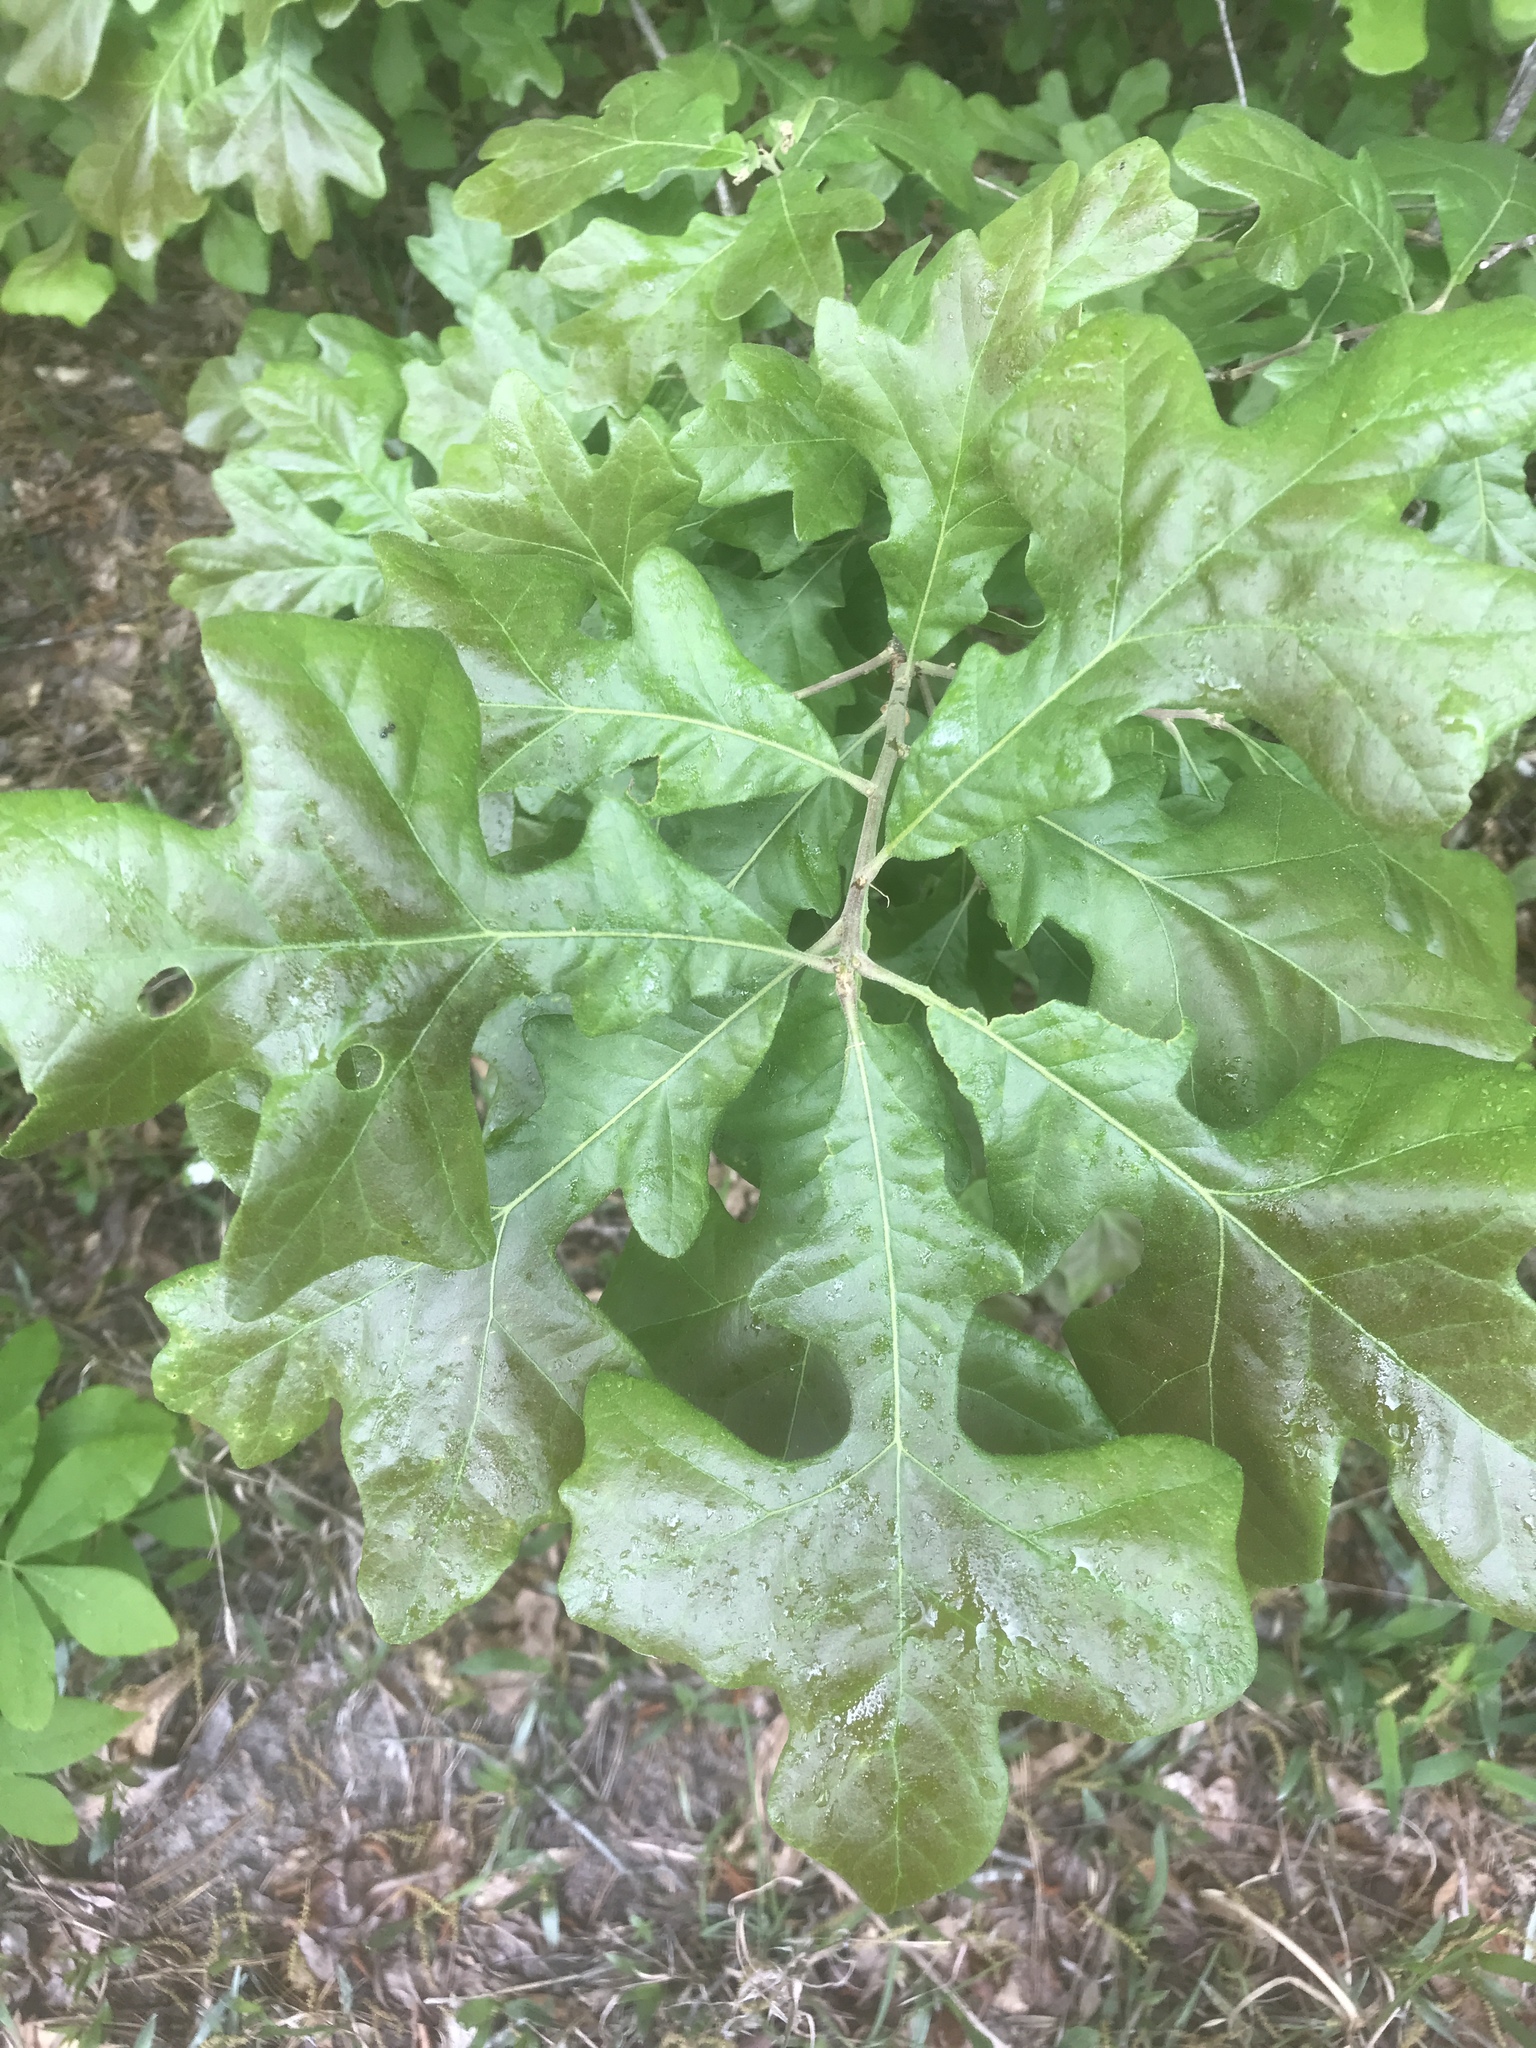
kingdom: Plantae
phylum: Tracheophyta
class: Magnoliopsida
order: Fagales
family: Fagaceae
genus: Quercus
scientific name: Quercus stellata
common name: Post oak
